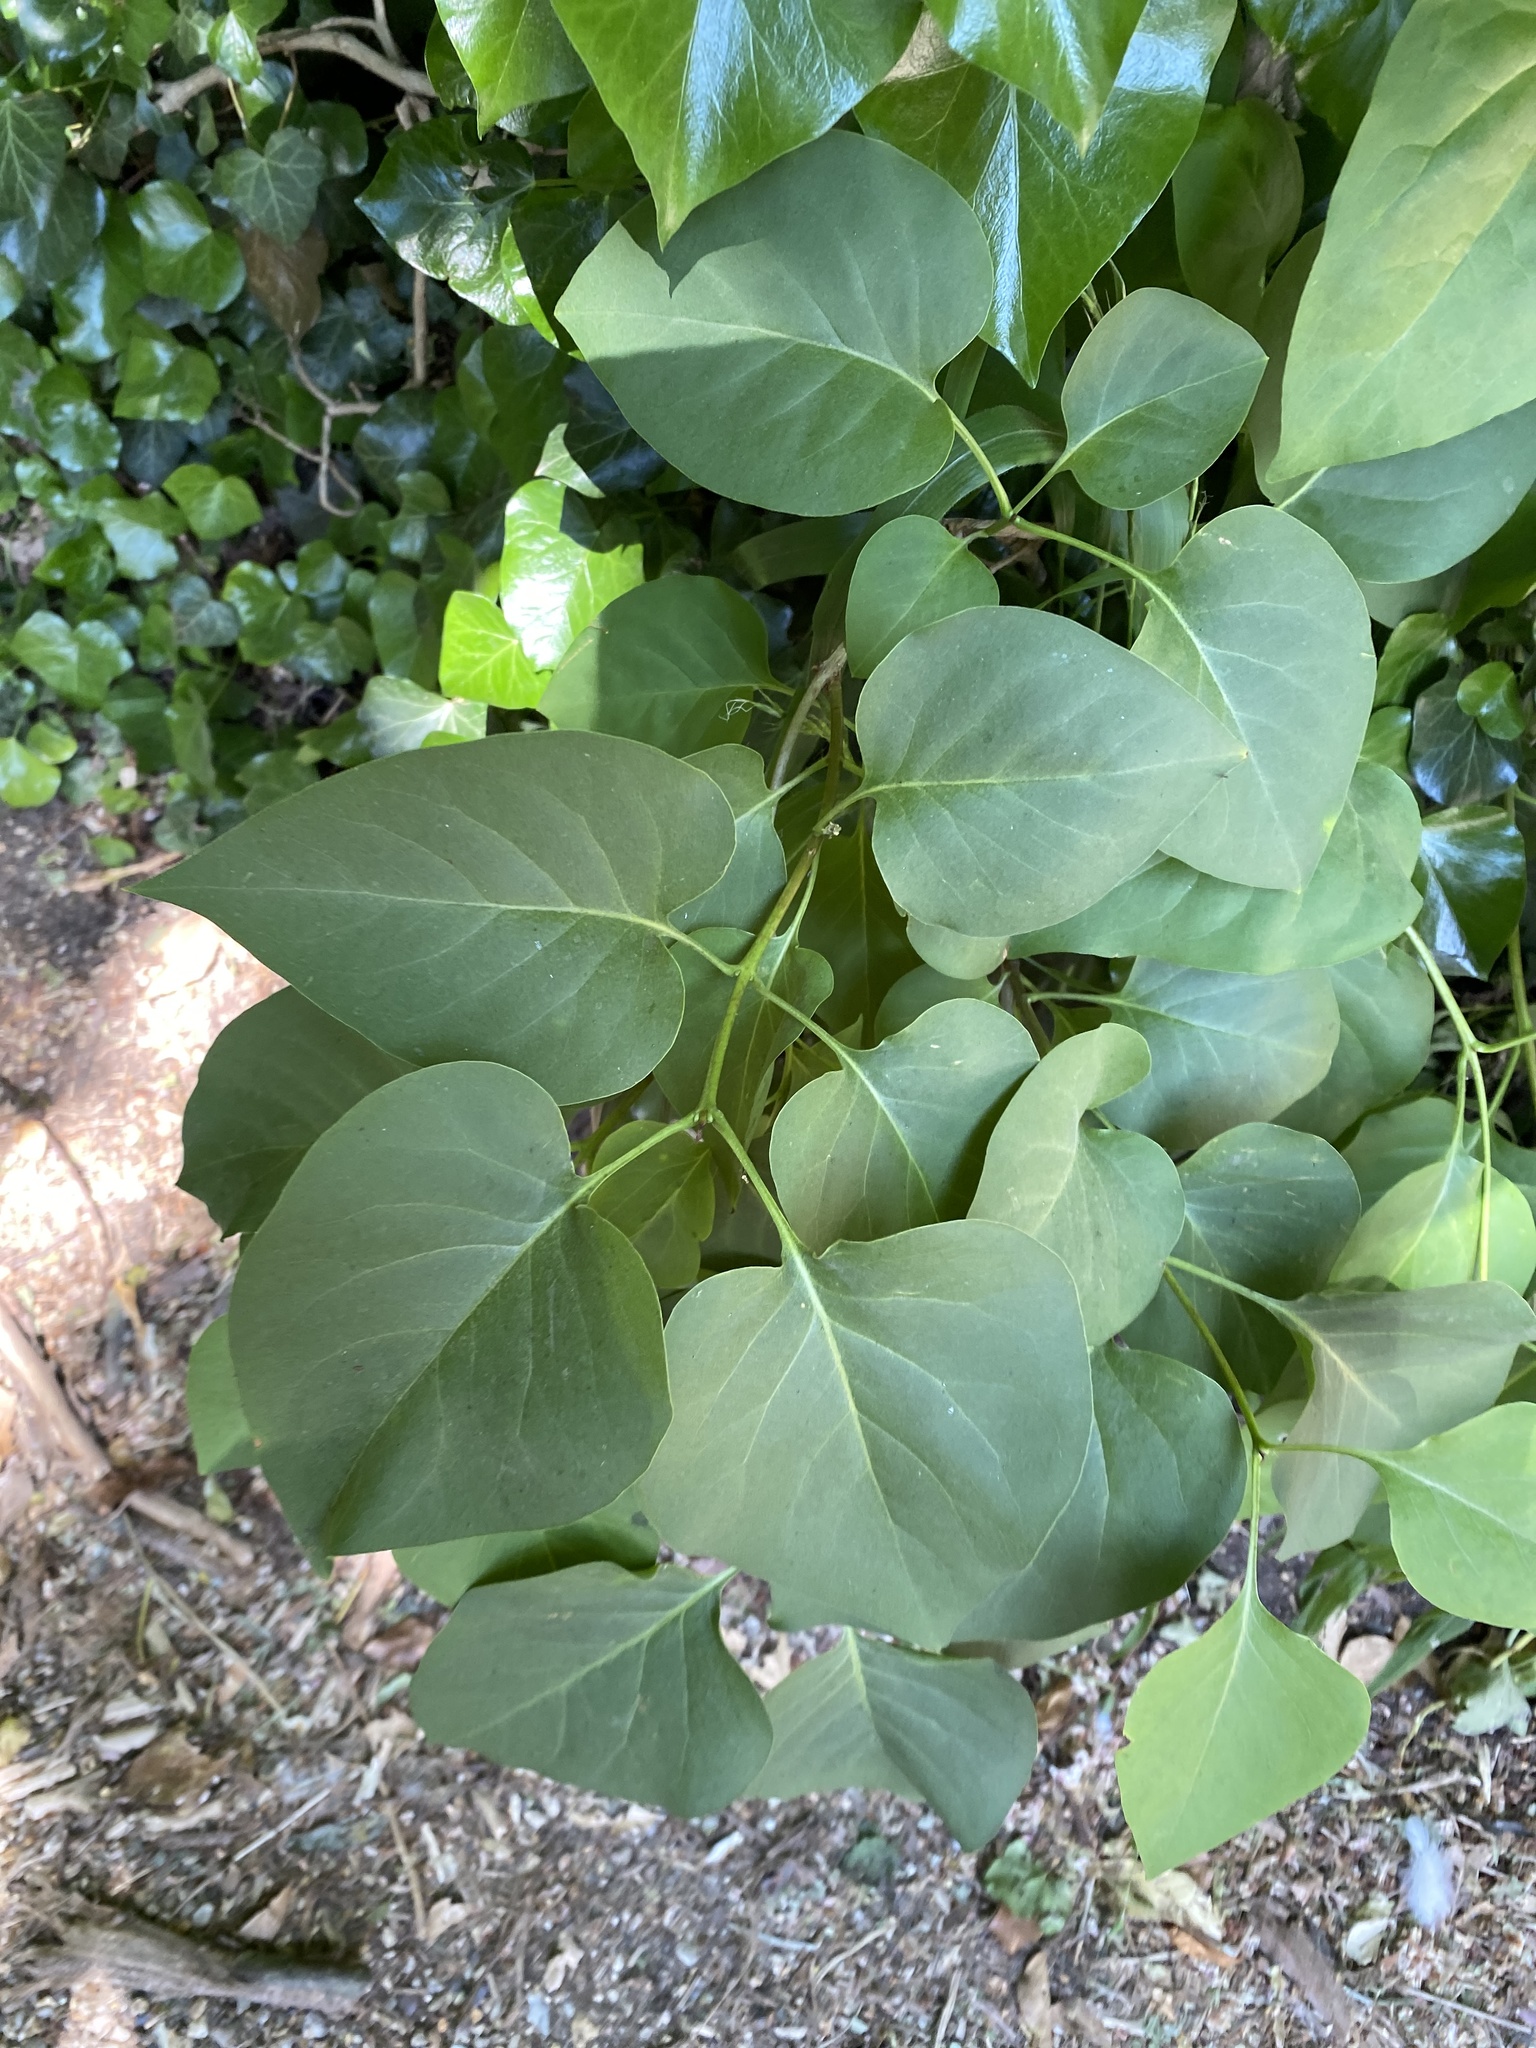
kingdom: Plantae
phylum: Tracheophyta
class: Magnoliopsida
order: Lamiales
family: Oleaceae
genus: Syringa
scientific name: Syringa vulgaris
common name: Common lilac
